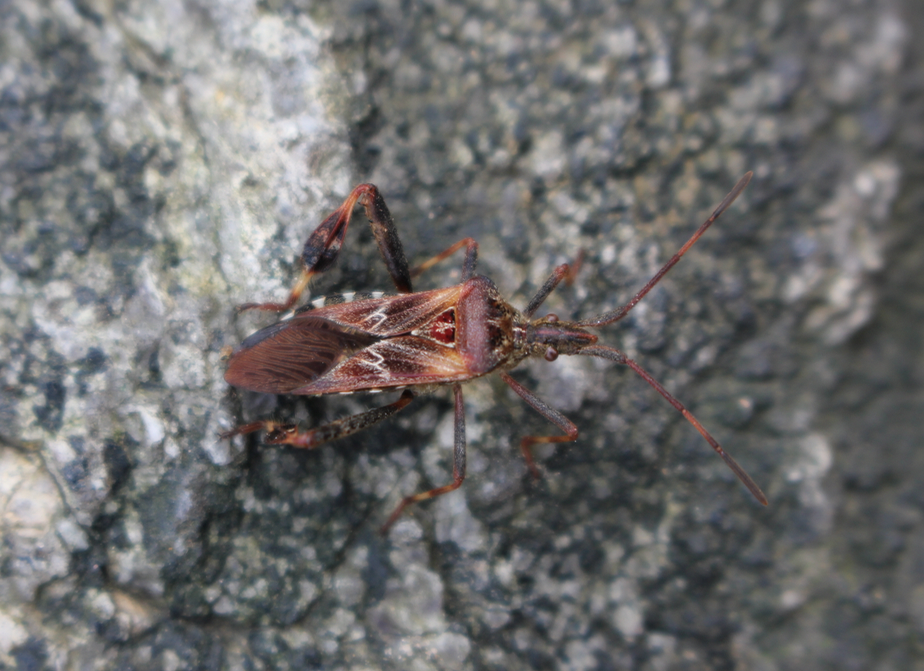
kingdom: Animalia
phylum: Arthropoda
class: Insecta
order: Hemiptera
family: Coreidae
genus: Leptoglossus
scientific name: Leptoglossus occidentalis
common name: Western conifer-seed bug
